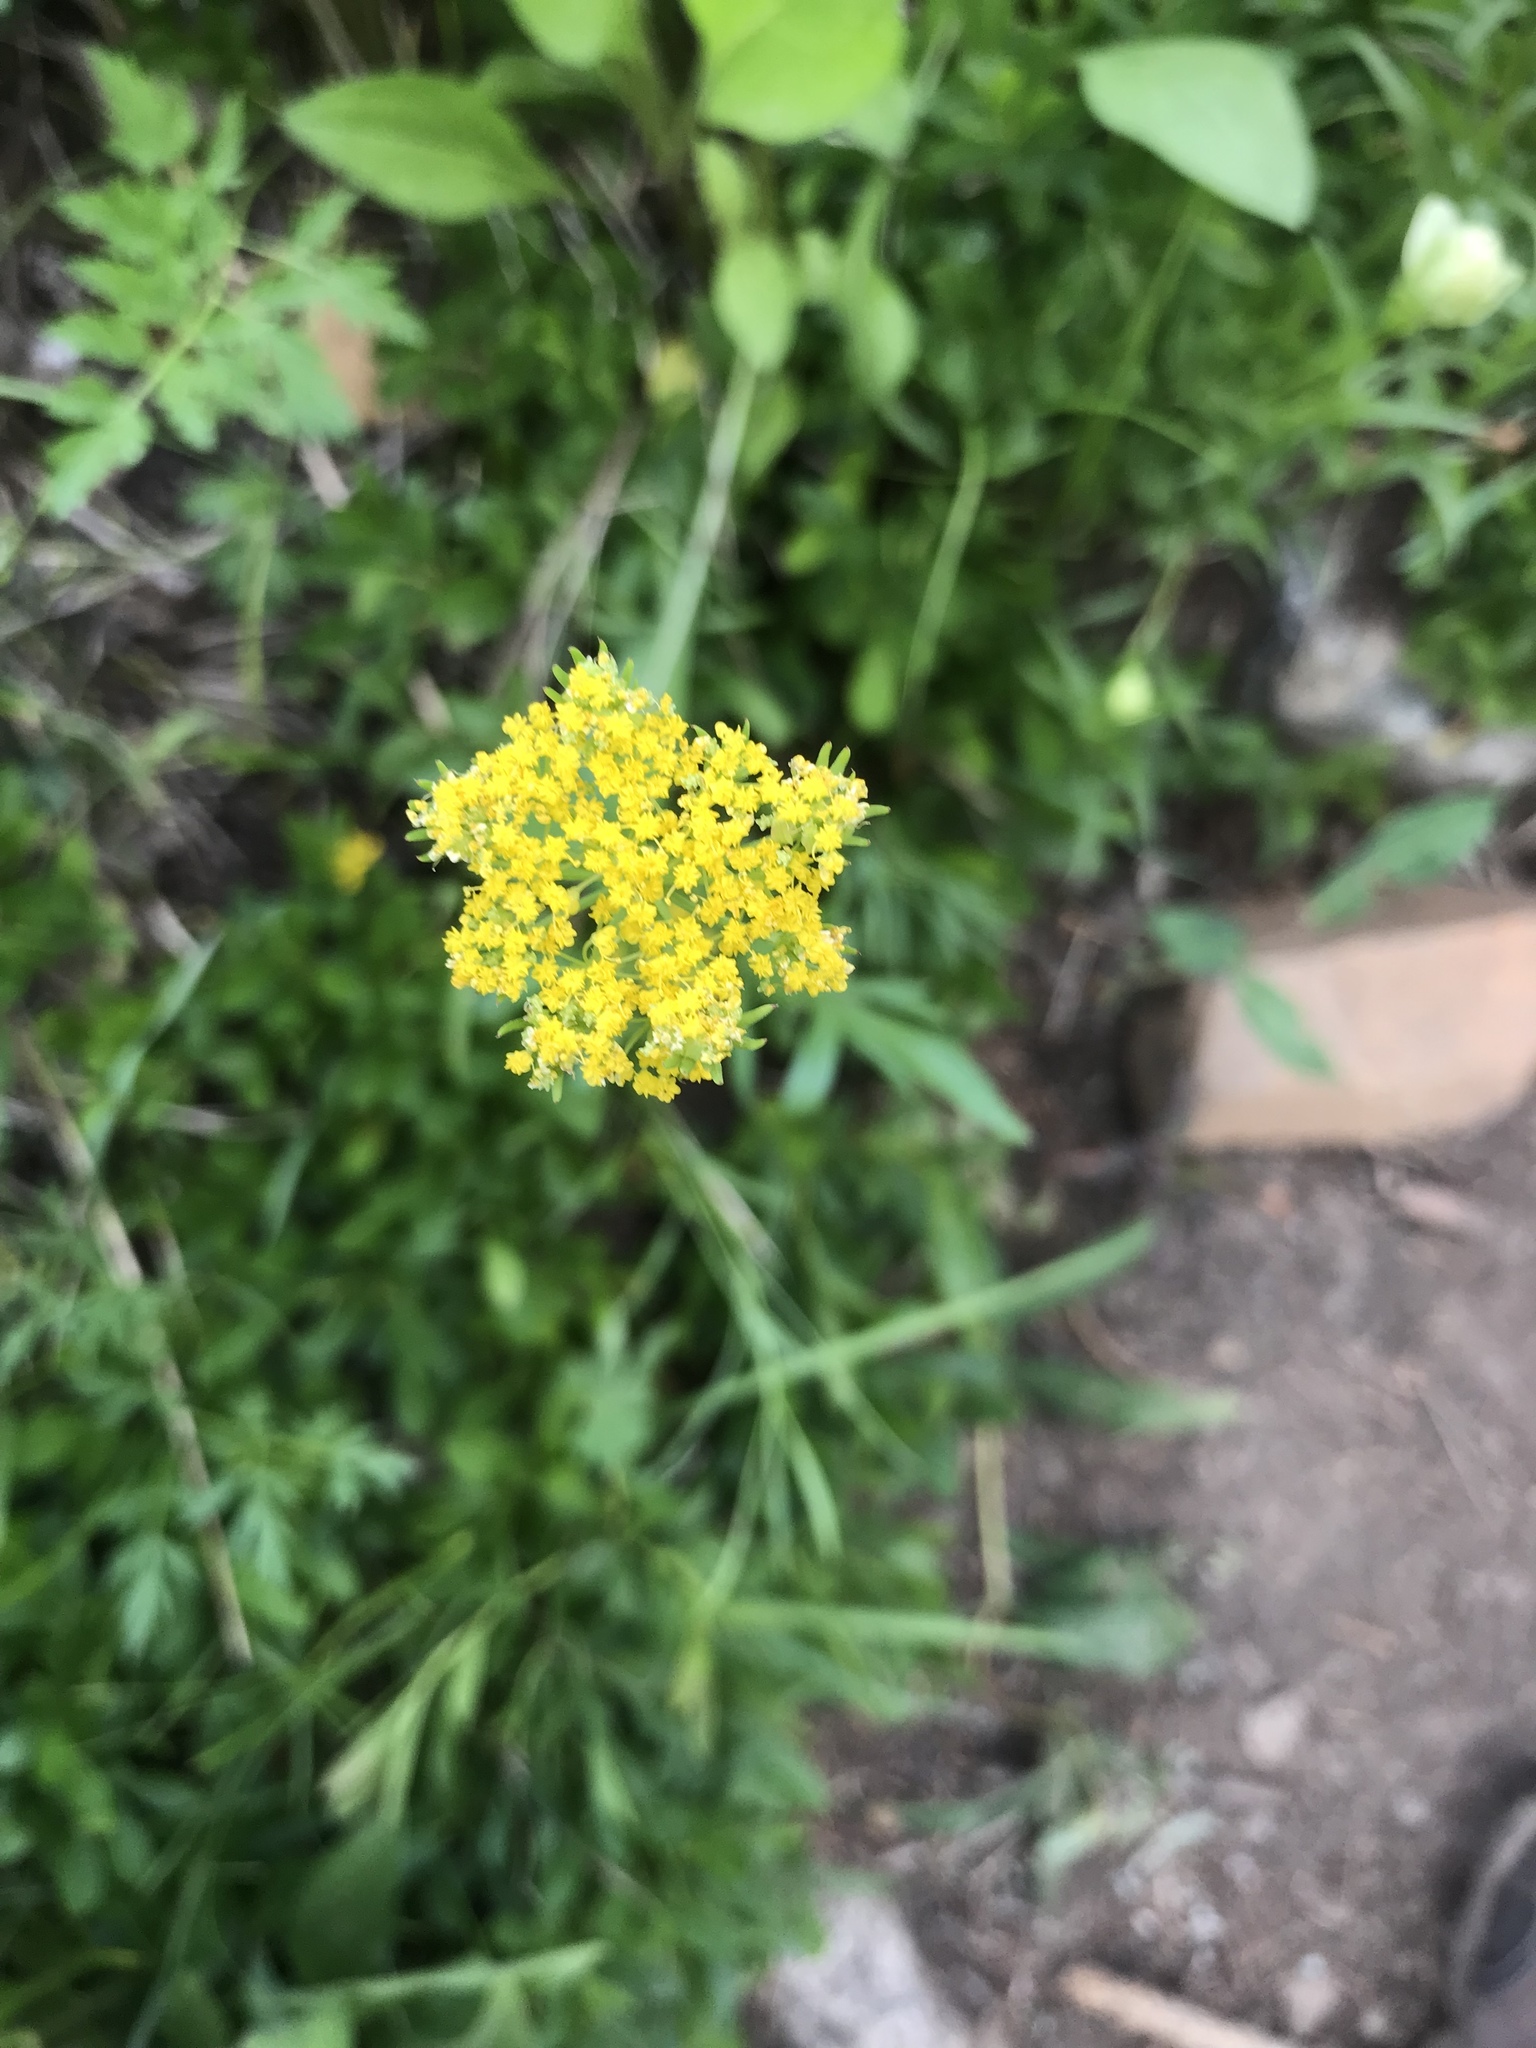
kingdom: Plantae
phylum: Tracheophyta
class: Magnoliopsida
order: Apiales
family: Apiaceae
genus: Cymopterus
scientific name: Cymopterus lemmonii
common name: Lemmon's spring-parsley
